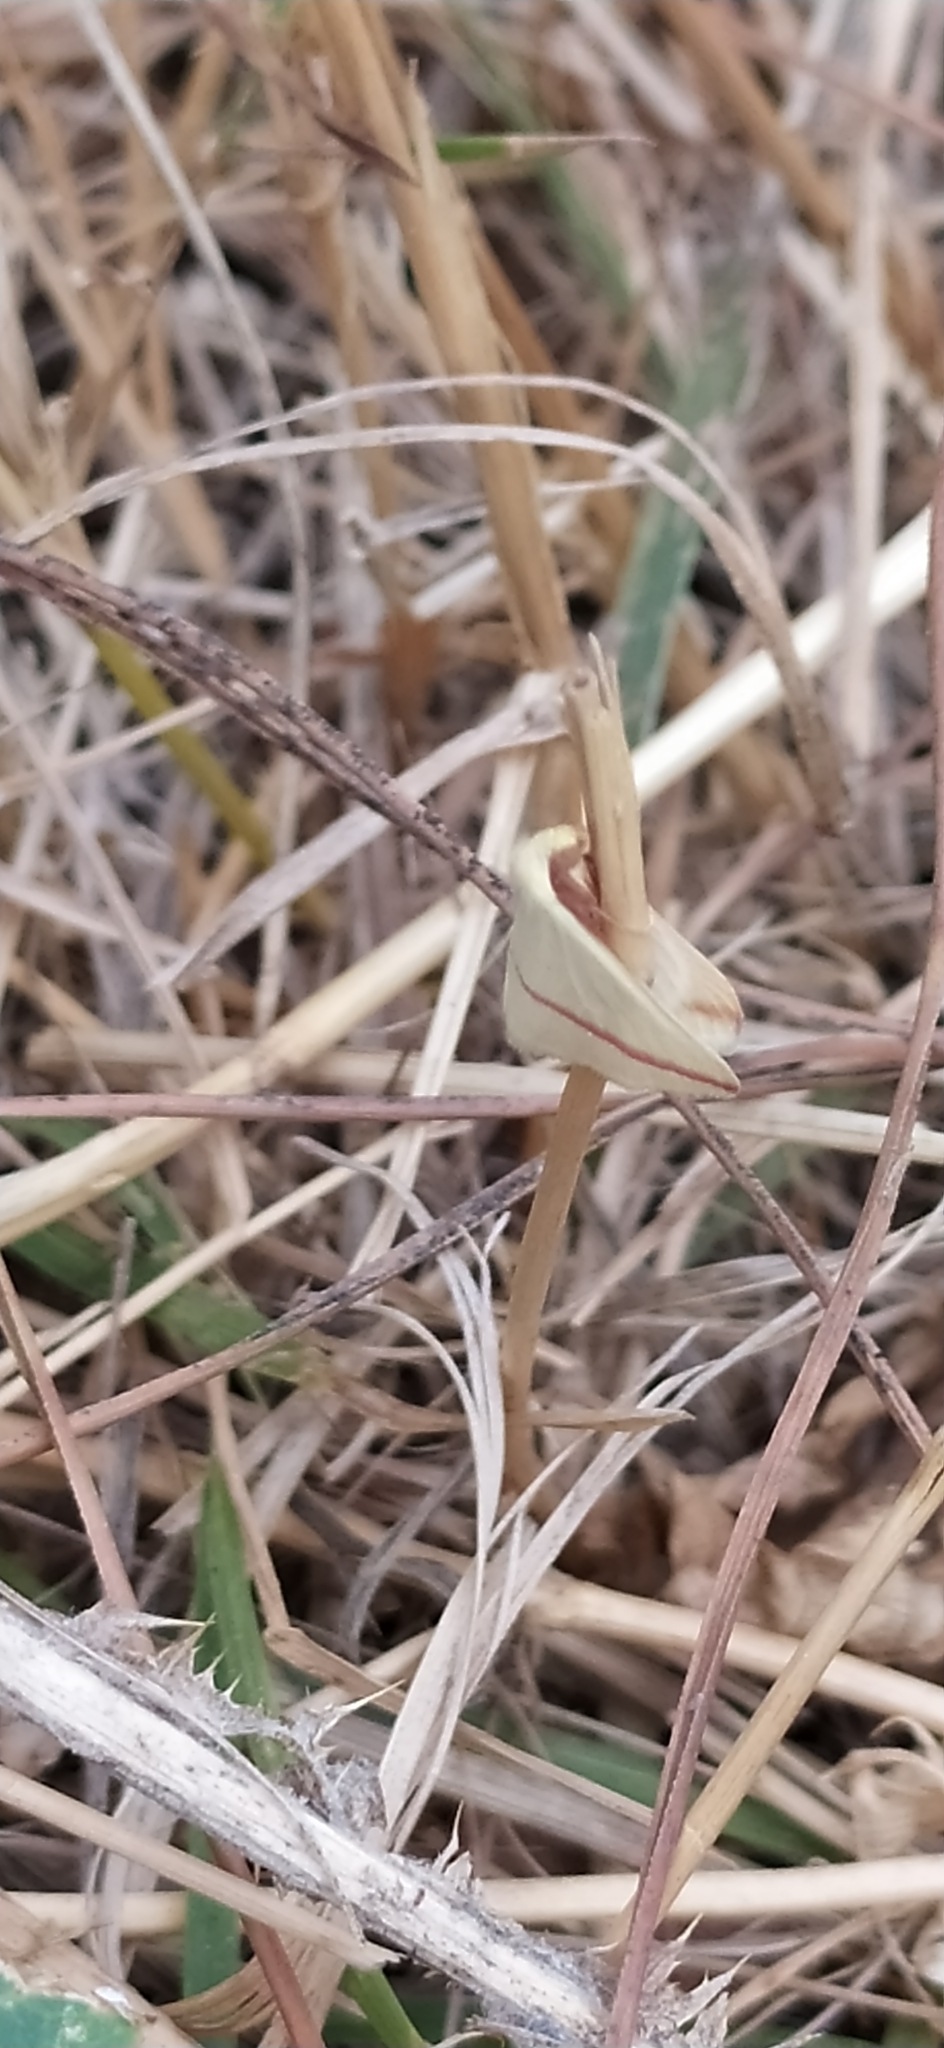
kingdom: Animalia
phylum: Arthropoda
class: Insecta
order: Lepidoptera
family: Geometridae
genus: Rhodometra
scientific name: Rhodometra sacraria
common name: Vestal
